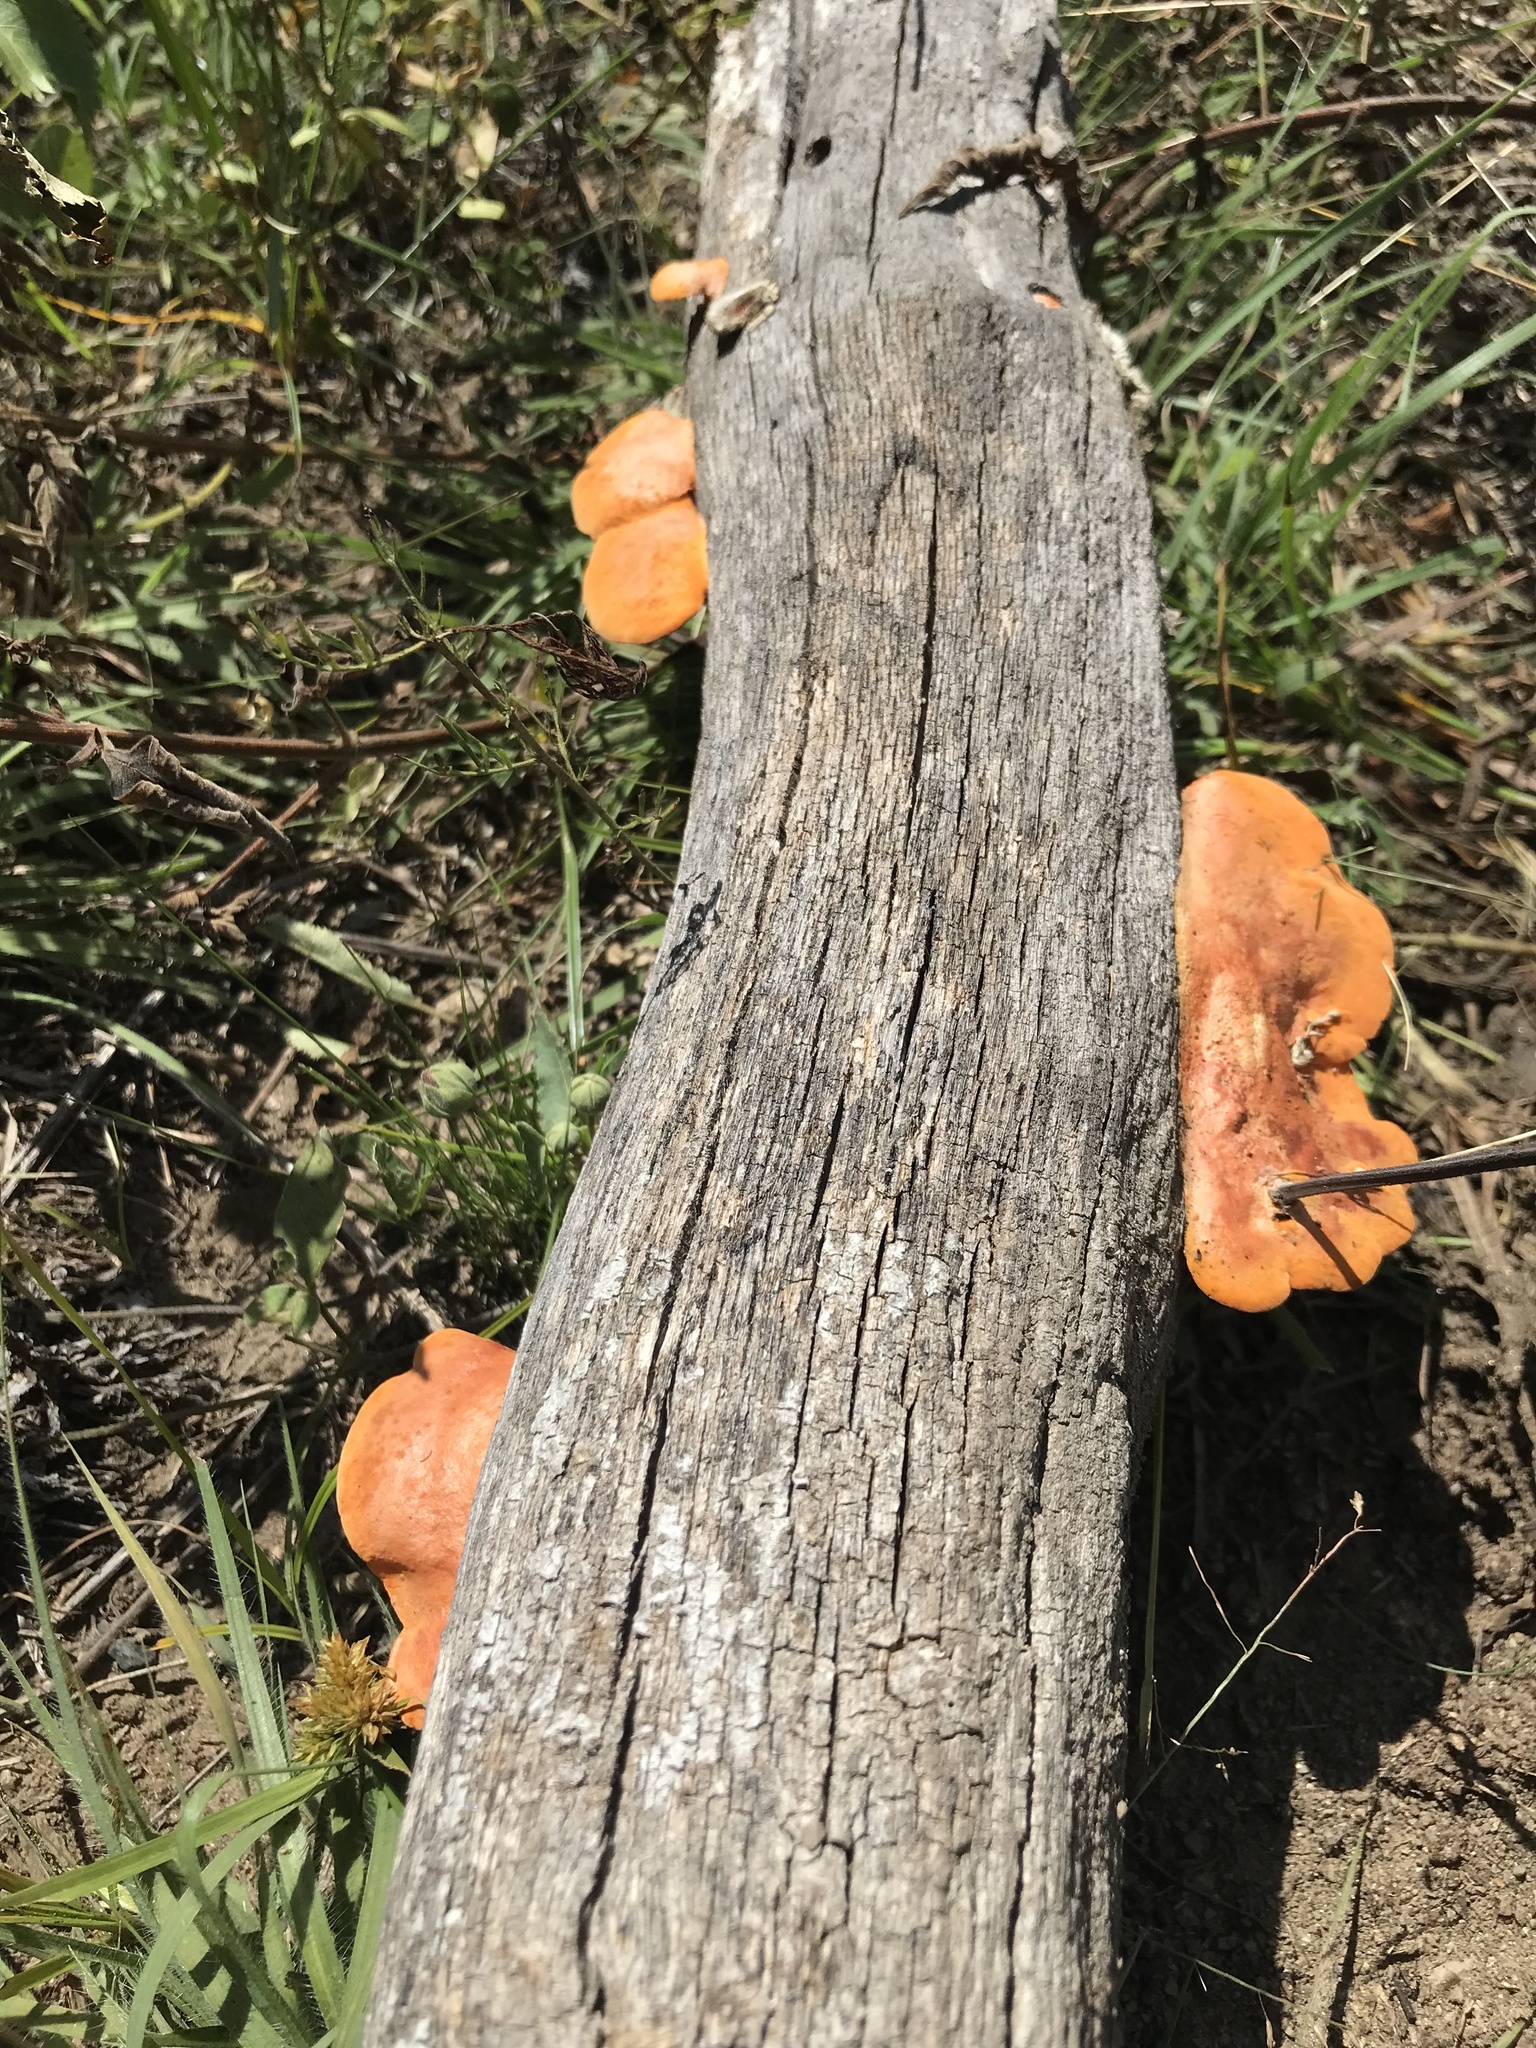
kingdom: Fungi
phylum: Basidiomycota
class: Agaricomycetes
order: Polyporales
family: Polyporaceae
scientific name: Polyporaceae
